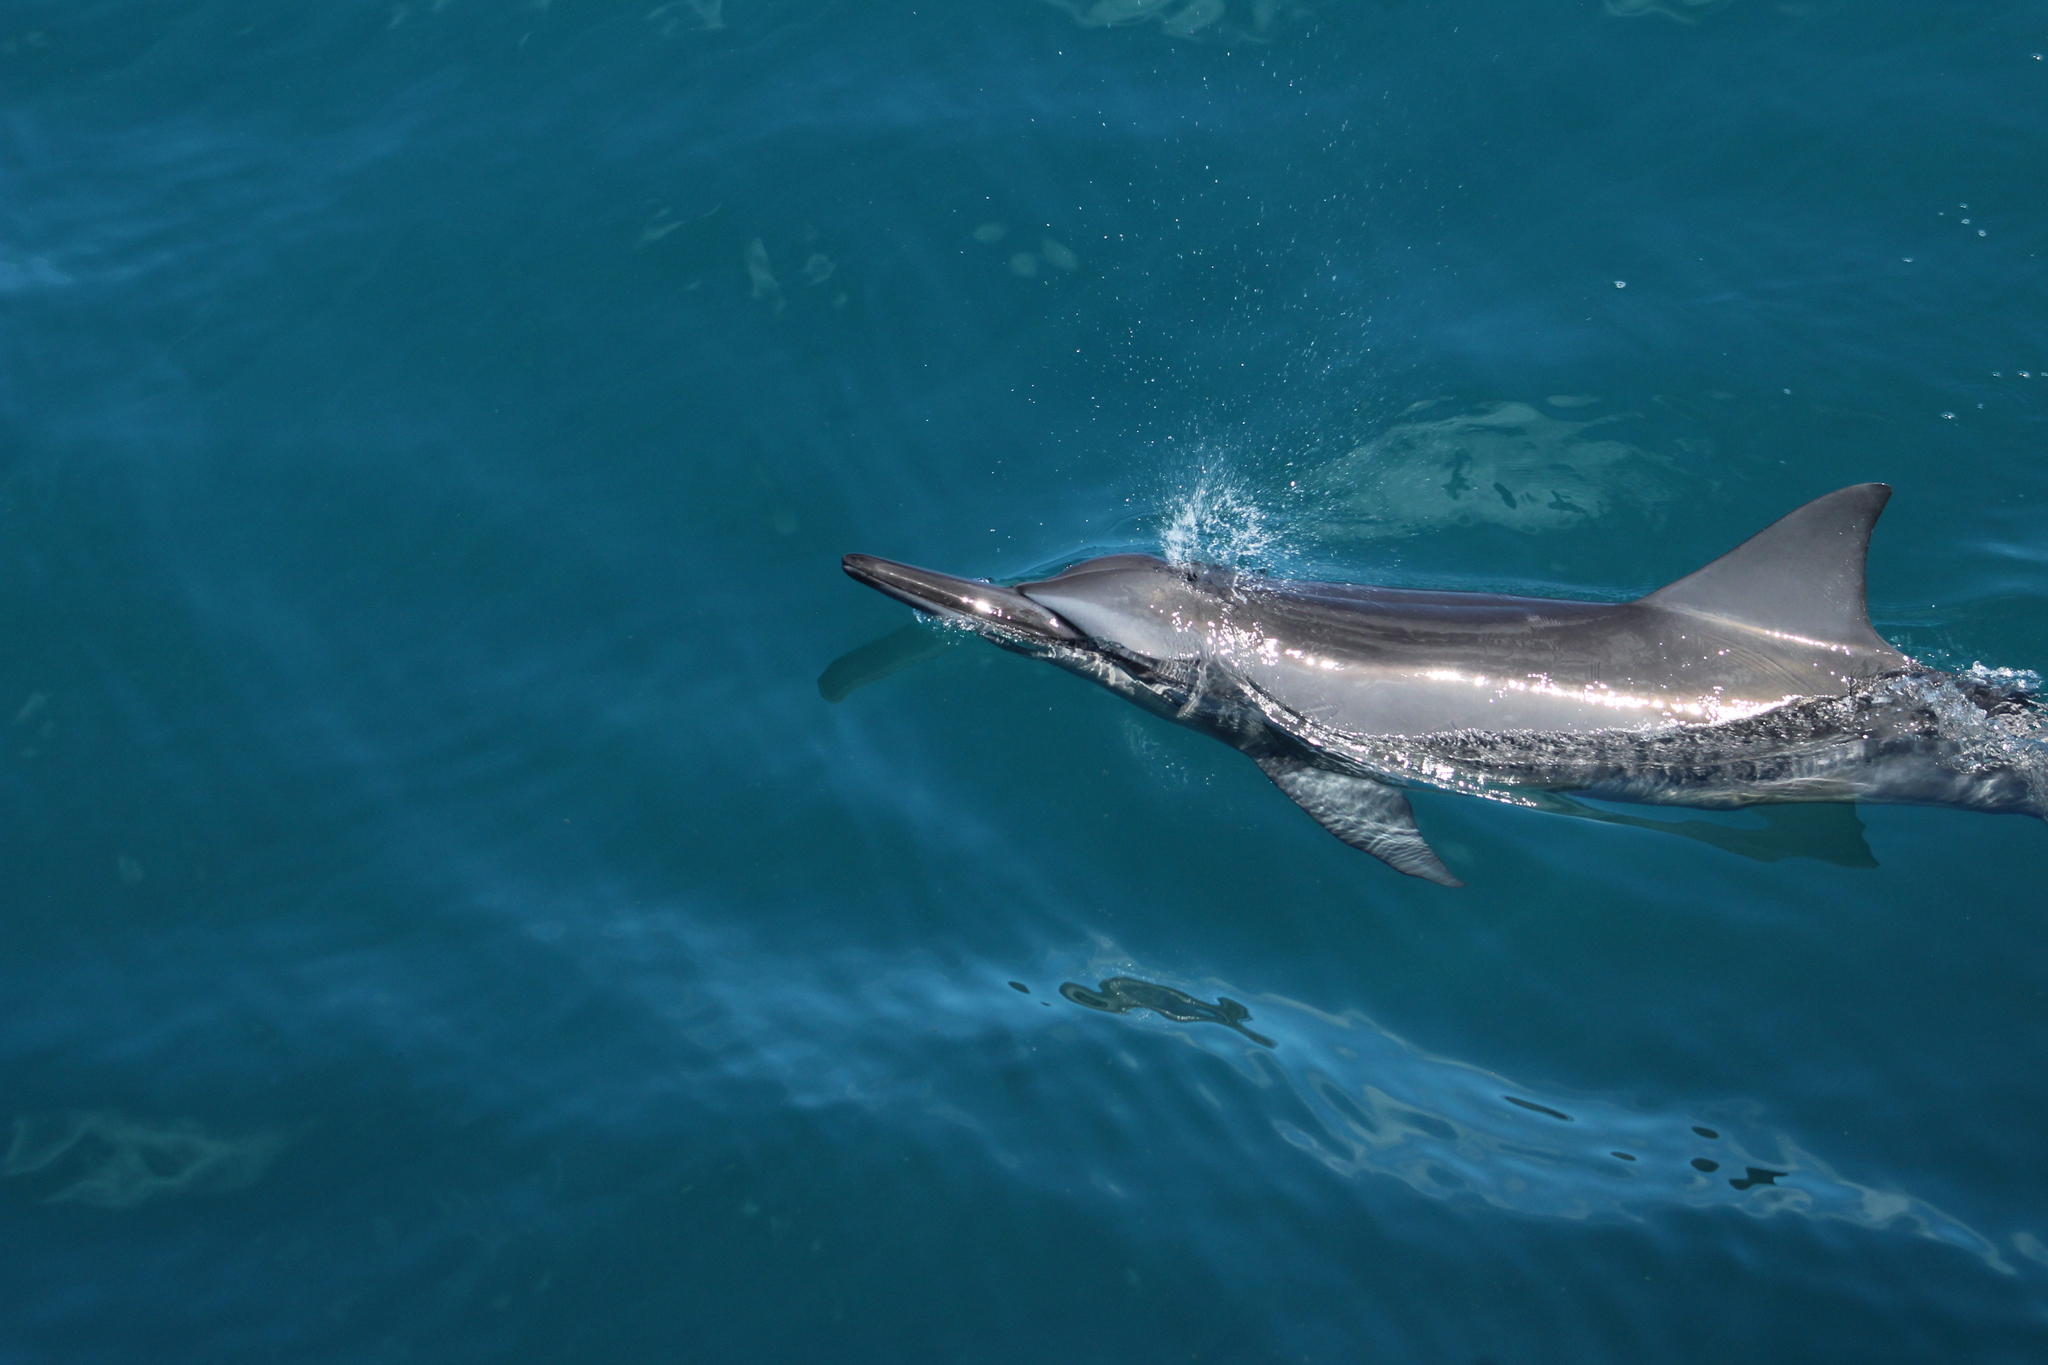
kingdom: Animalia
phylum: Chordata
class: Mammalia
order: Cetacea
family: Delphinidae
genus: Stenella
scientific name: Stenella longirostris
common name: Spinner dolphin
